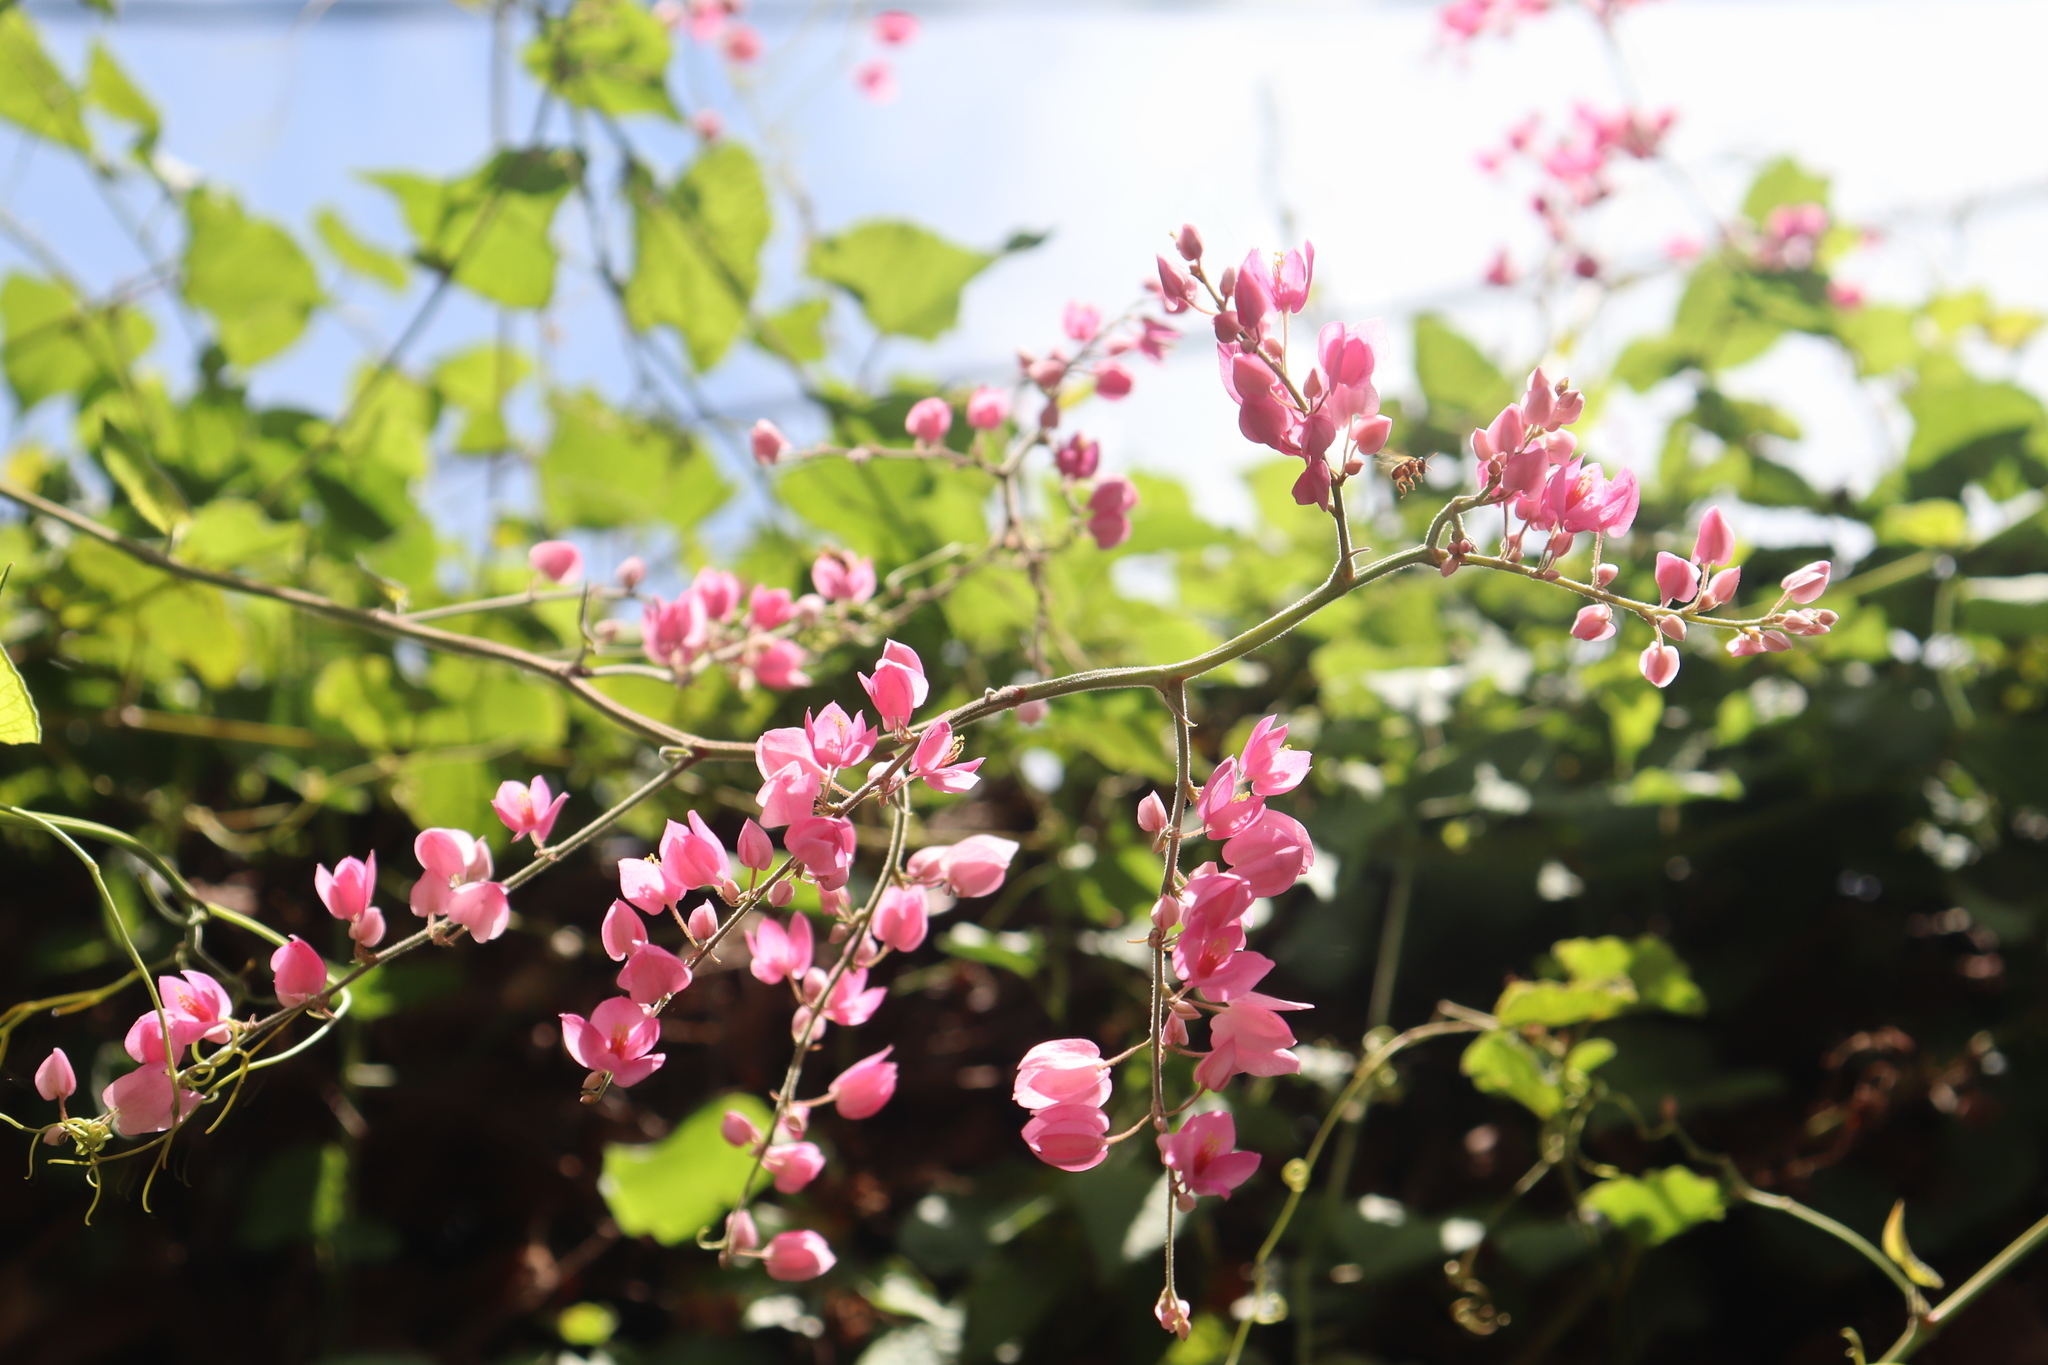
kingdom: Plantae
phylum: Tracheophyta
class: Magnoliopsida
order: Caryophyllales
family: Polygonaceae
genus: Antigonon
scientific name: Antigonon leptopus
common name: Coral vine
